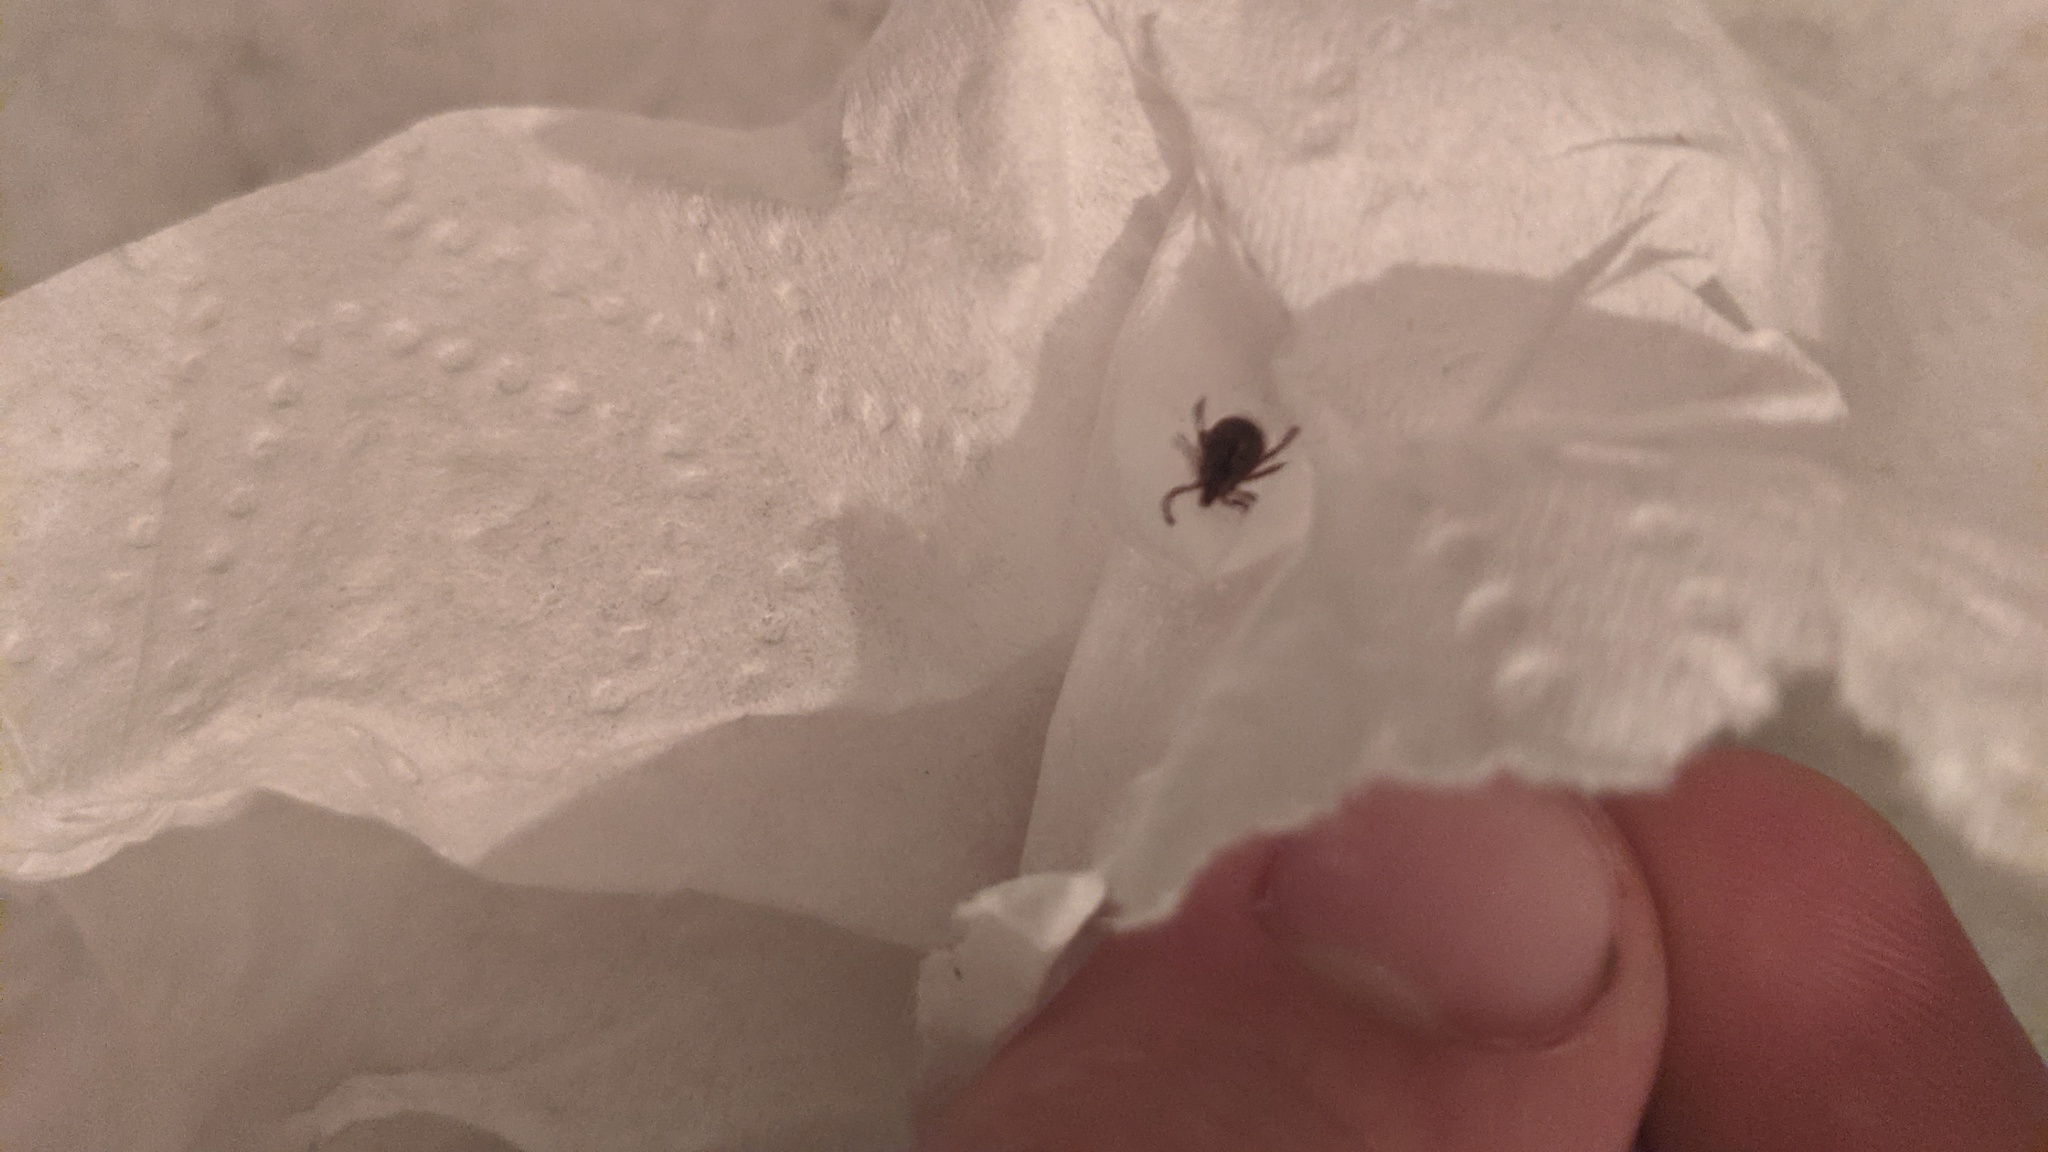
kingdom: Animalia
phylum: Arthropoda
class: Arachnida
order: Ixodida
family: Ixodidae
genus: Dermacentor
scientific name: Dermacentor variabilis
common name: American dog tick
